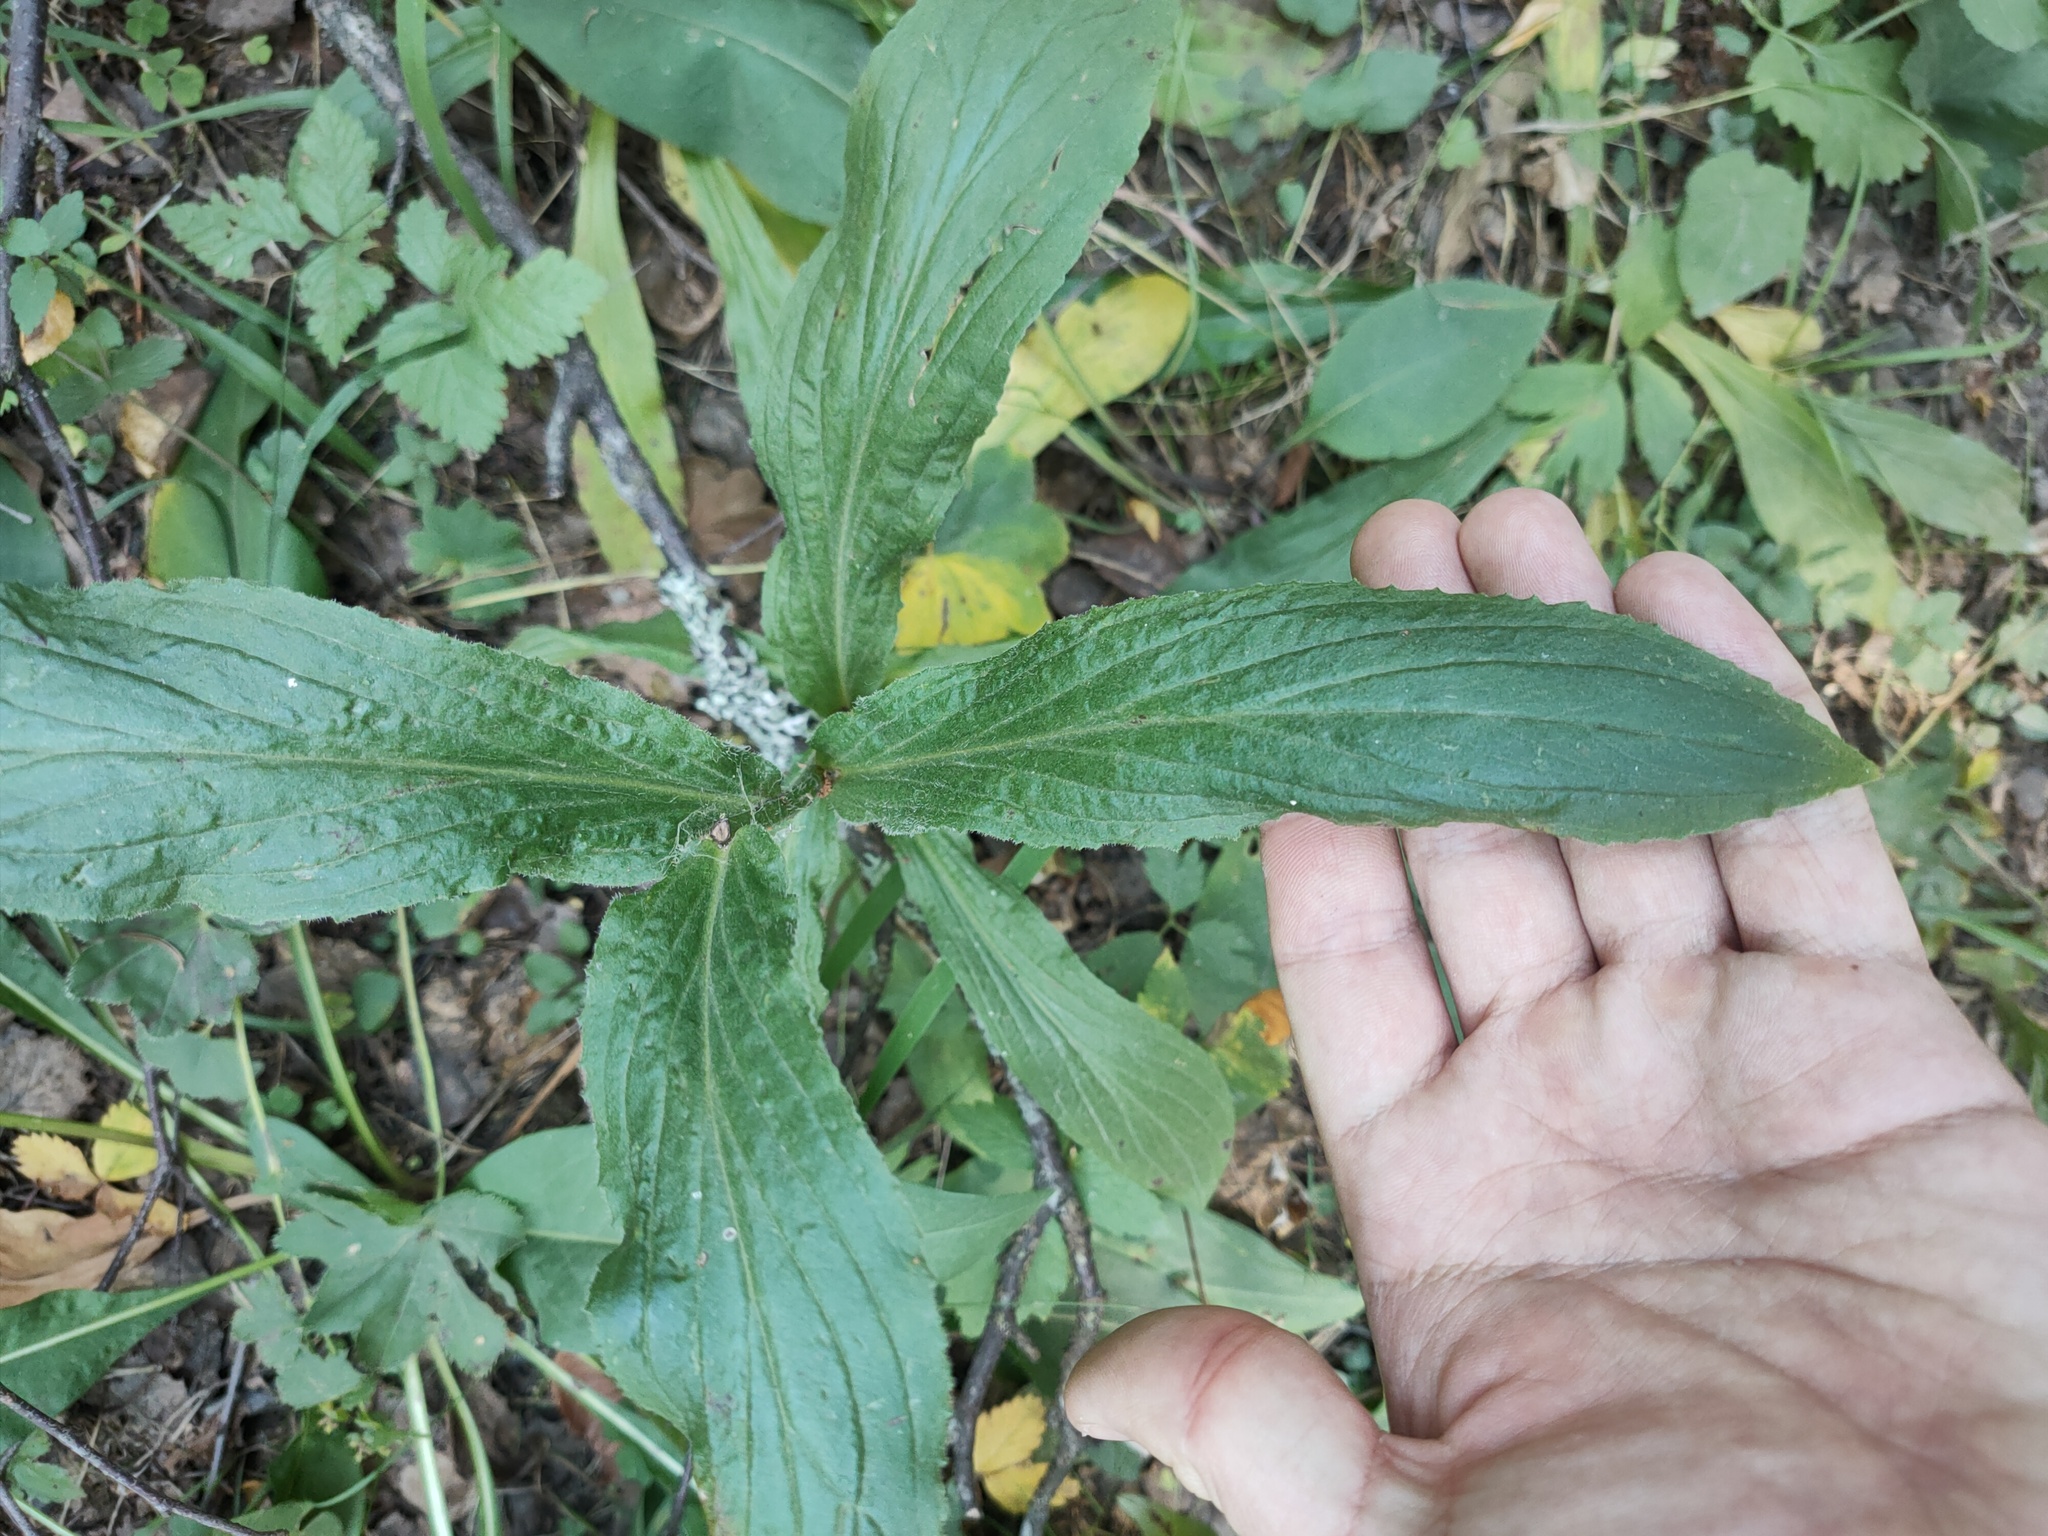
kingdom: Plantae
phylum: Tracheophyta
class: Magnoliopsida
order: Lamiales
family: Plantaginaceae
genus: Digitalis
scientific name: Digitalis grandiflora
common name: Yellow foxglove
